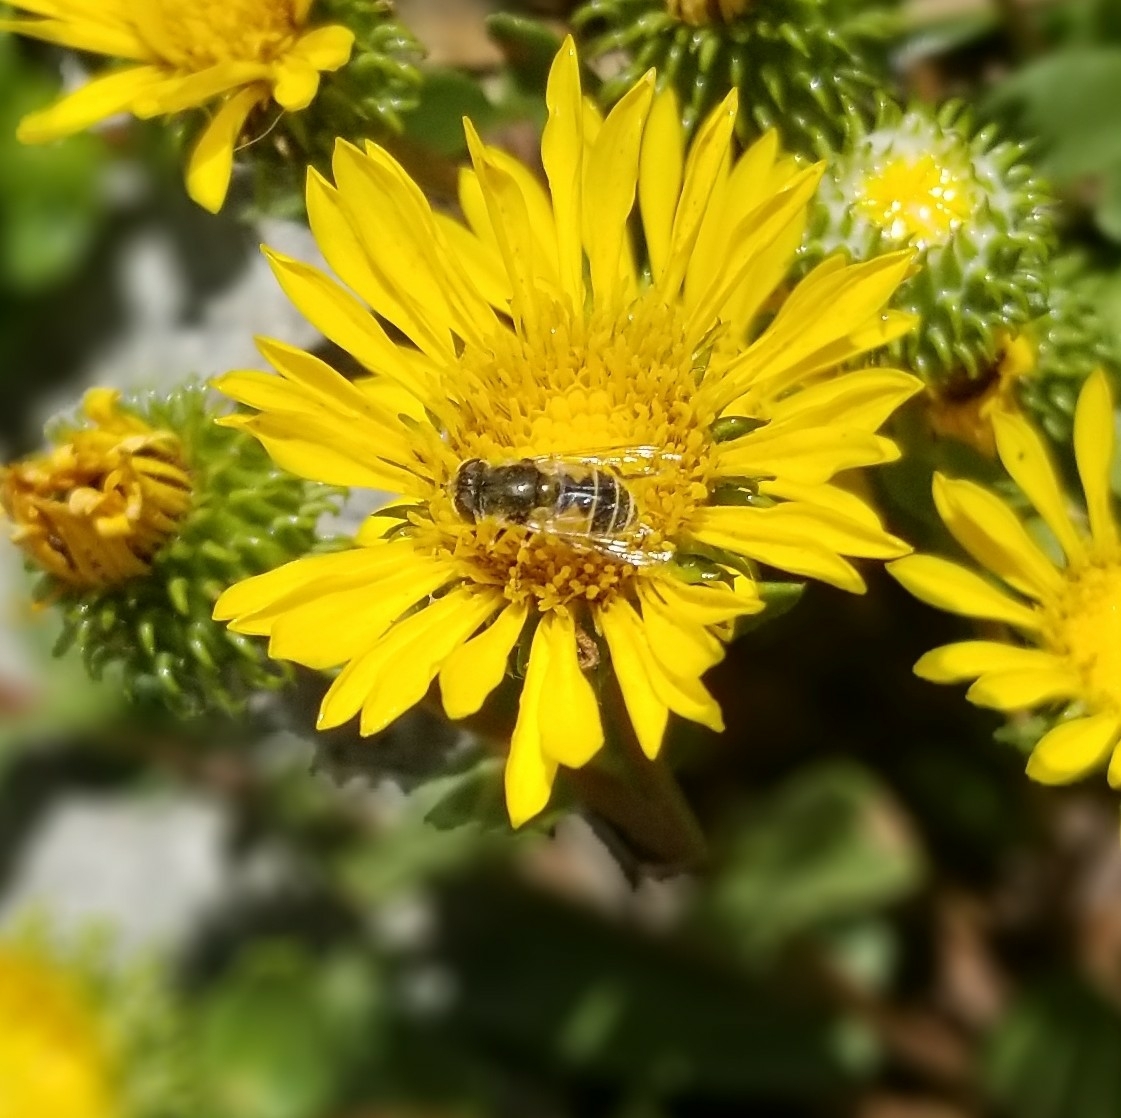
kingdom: Animalia
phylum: Arthropoda
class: Insecta
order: Diptera
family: Syrphidae
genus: Eristalis
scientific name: Eristalis arbustorum
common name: Hover fly
